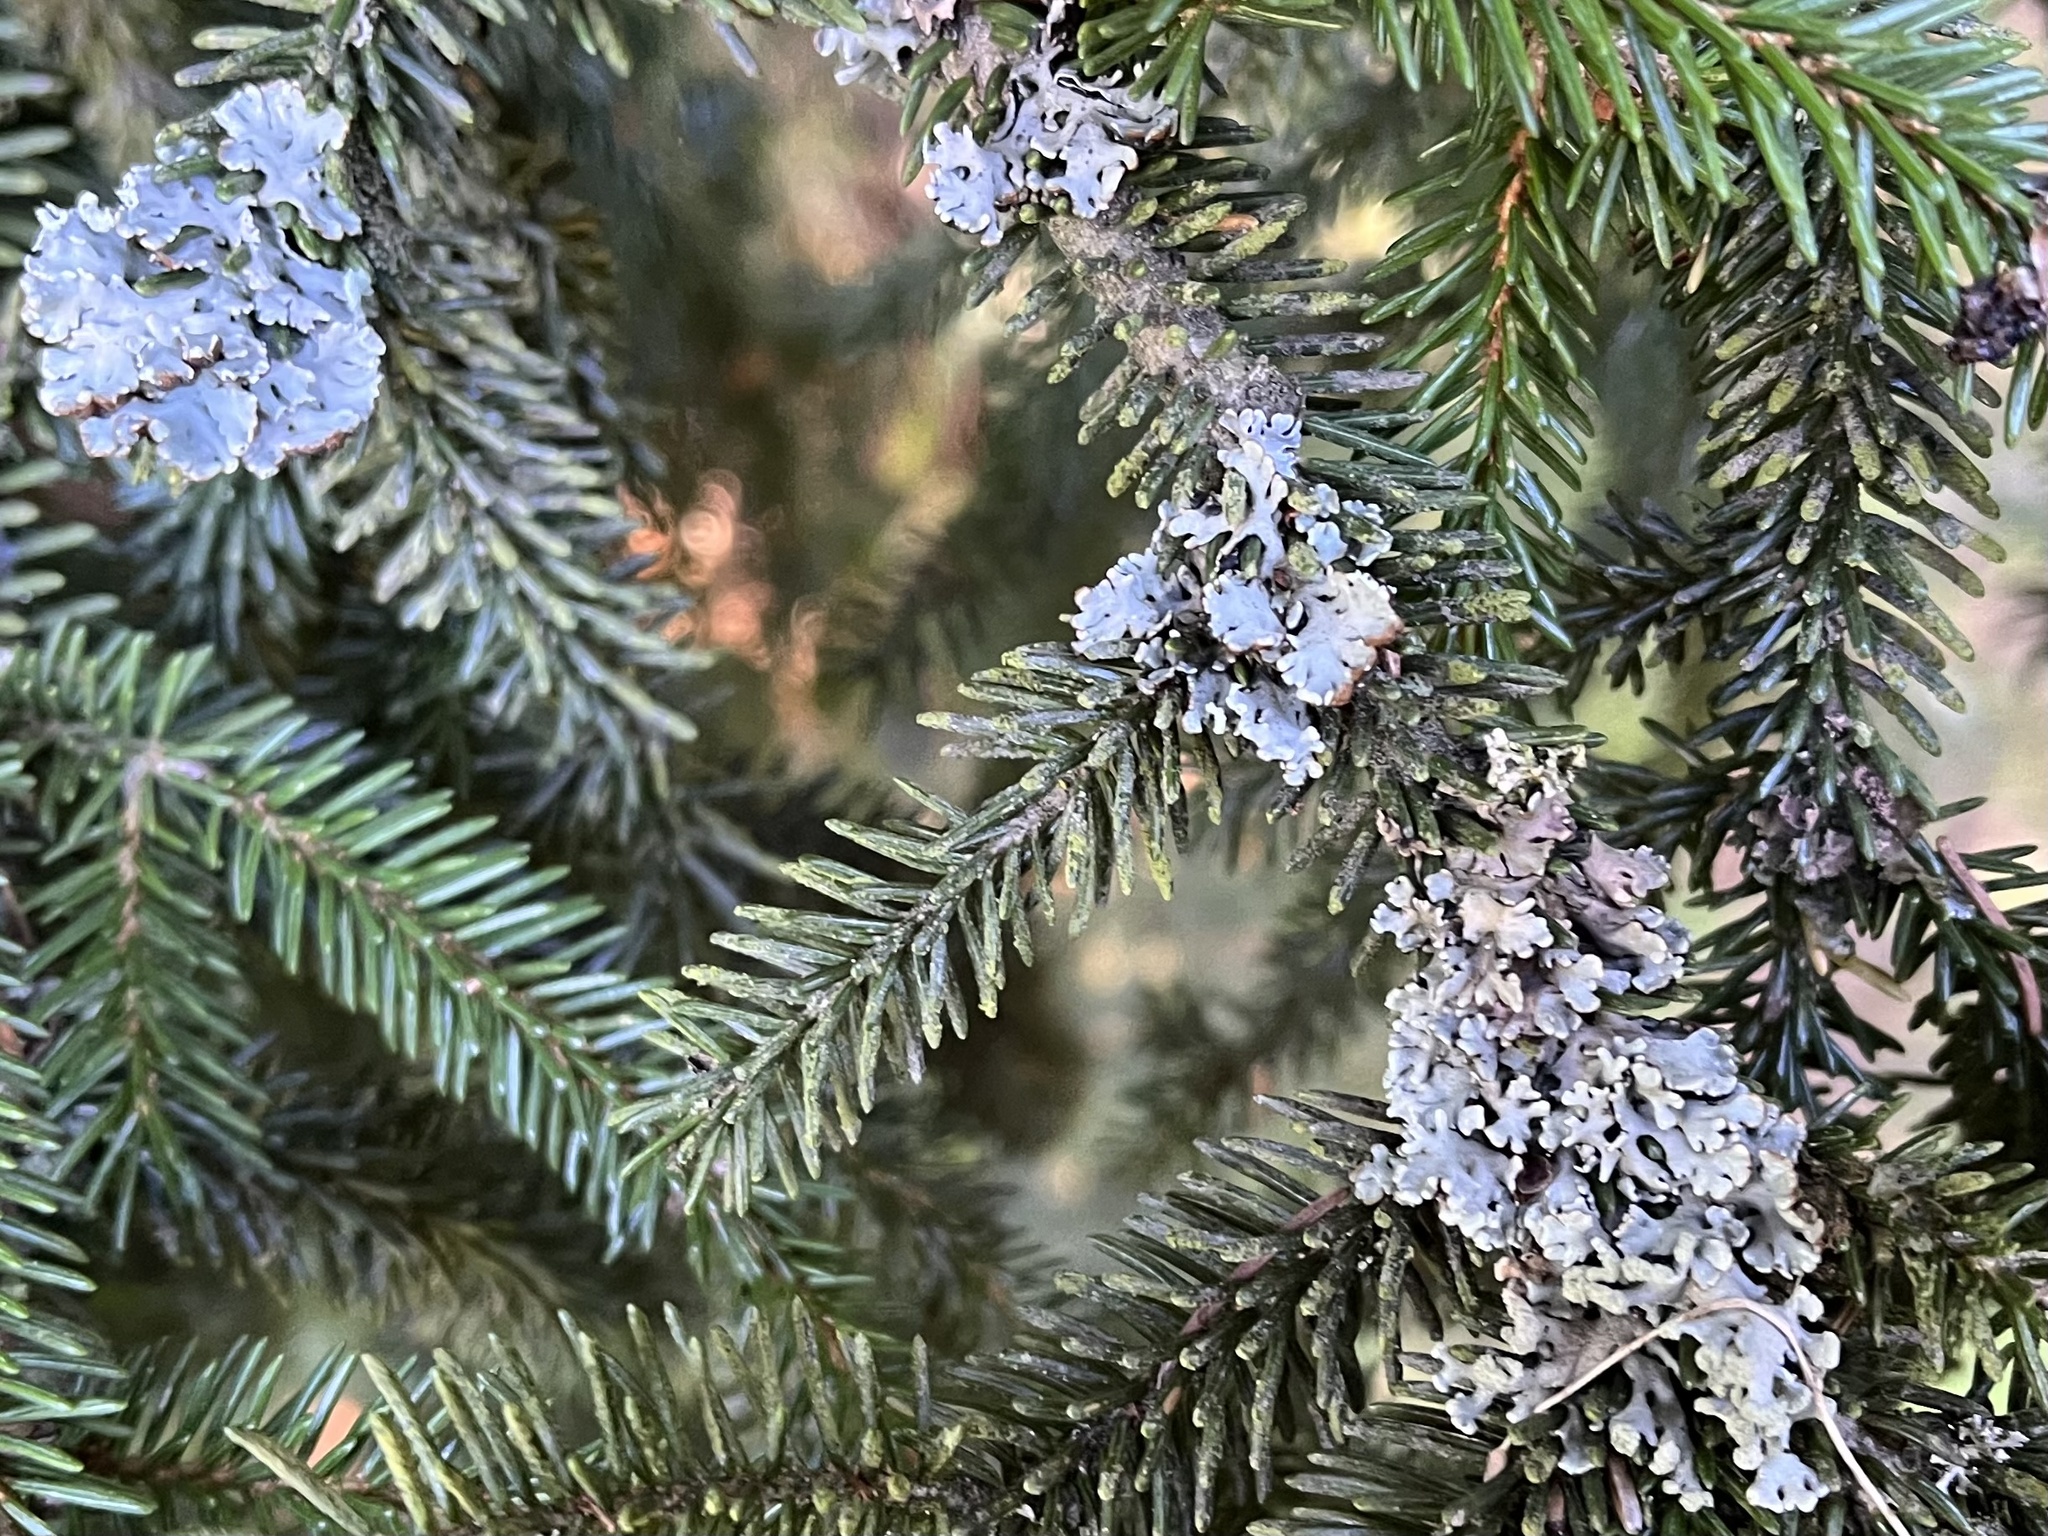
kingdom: Fungi
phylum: Ascomycota
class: Lecanoromycetes
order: Lecanorales
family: Parmeliaceae
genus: Hypogymnia
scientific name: Hypogymnia physodes
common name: Dark crottle
